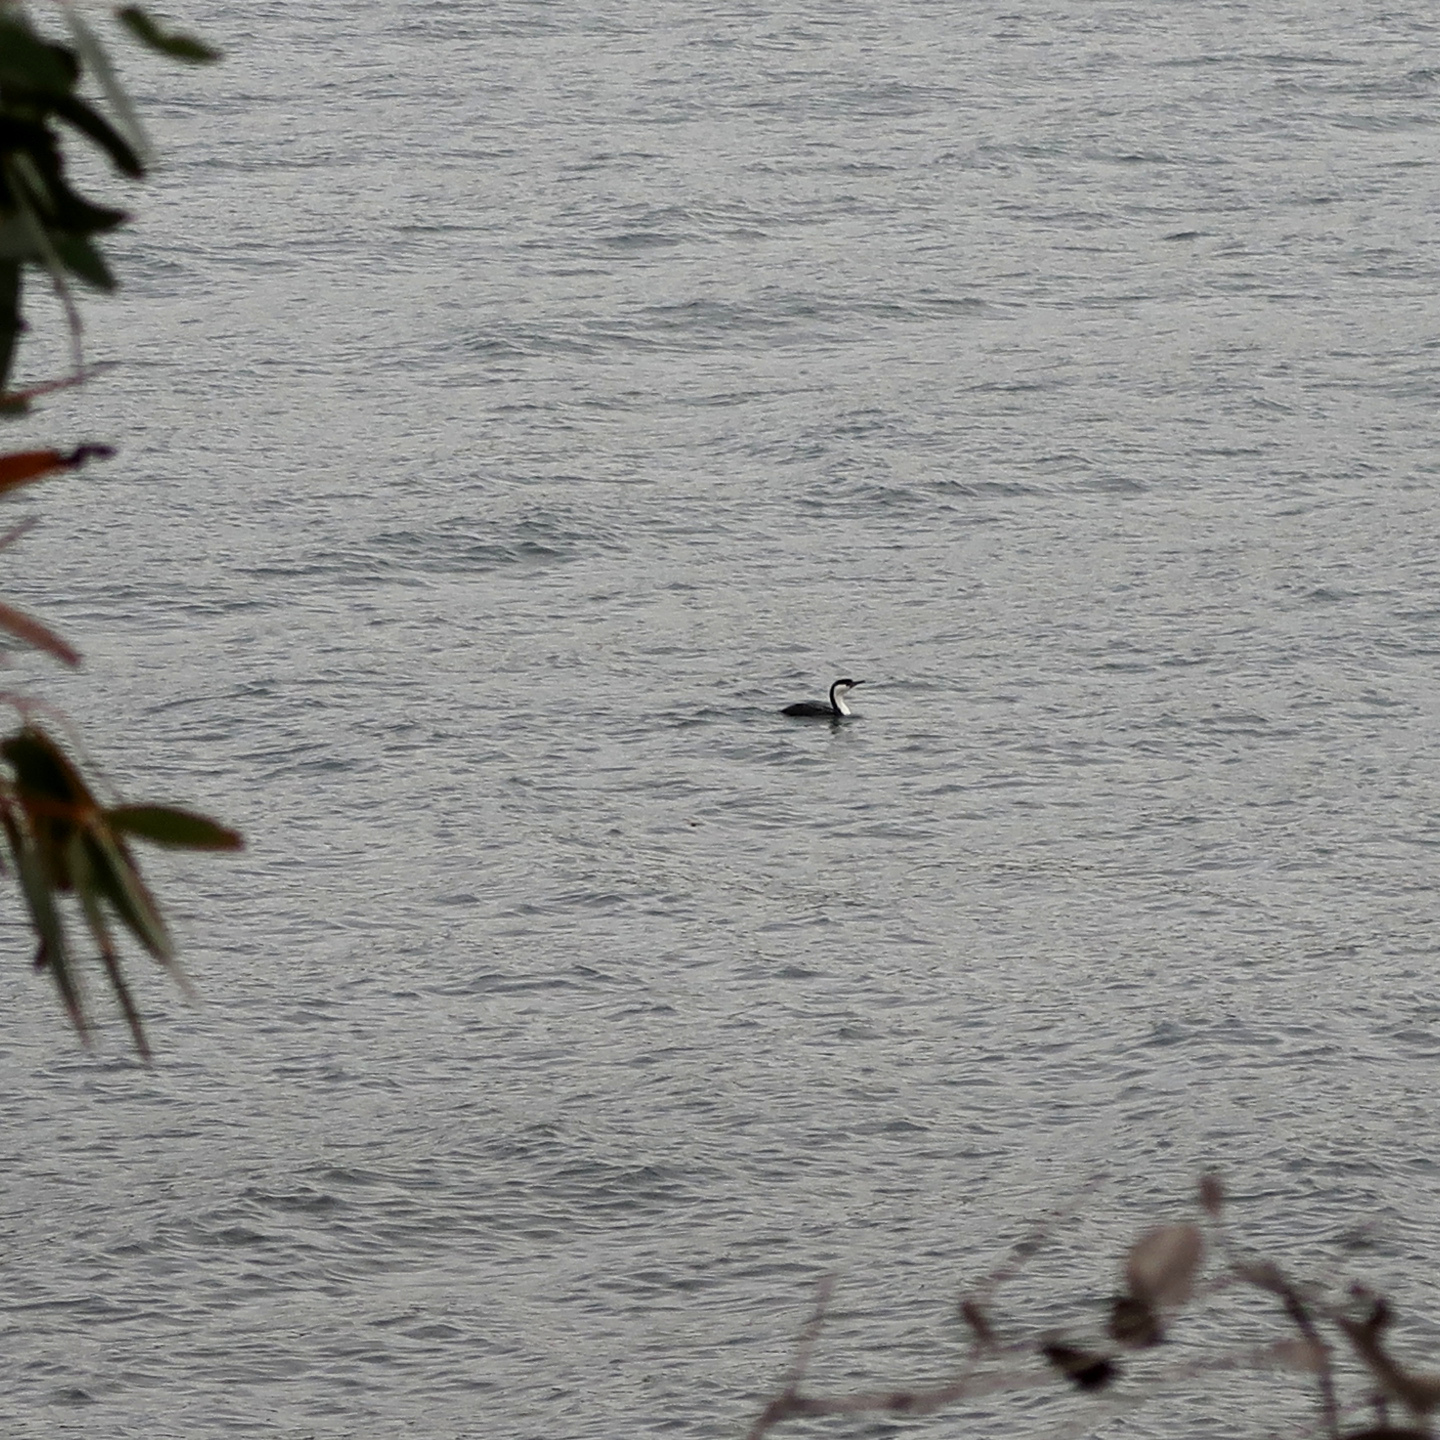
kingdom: Animalia
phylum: Chordata
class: Aves
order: Suliformes
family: Phalacrocoracidae
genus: Phalacrocorax
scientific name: Phalacrocorax fuscescens
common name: Black-faced cormorant
